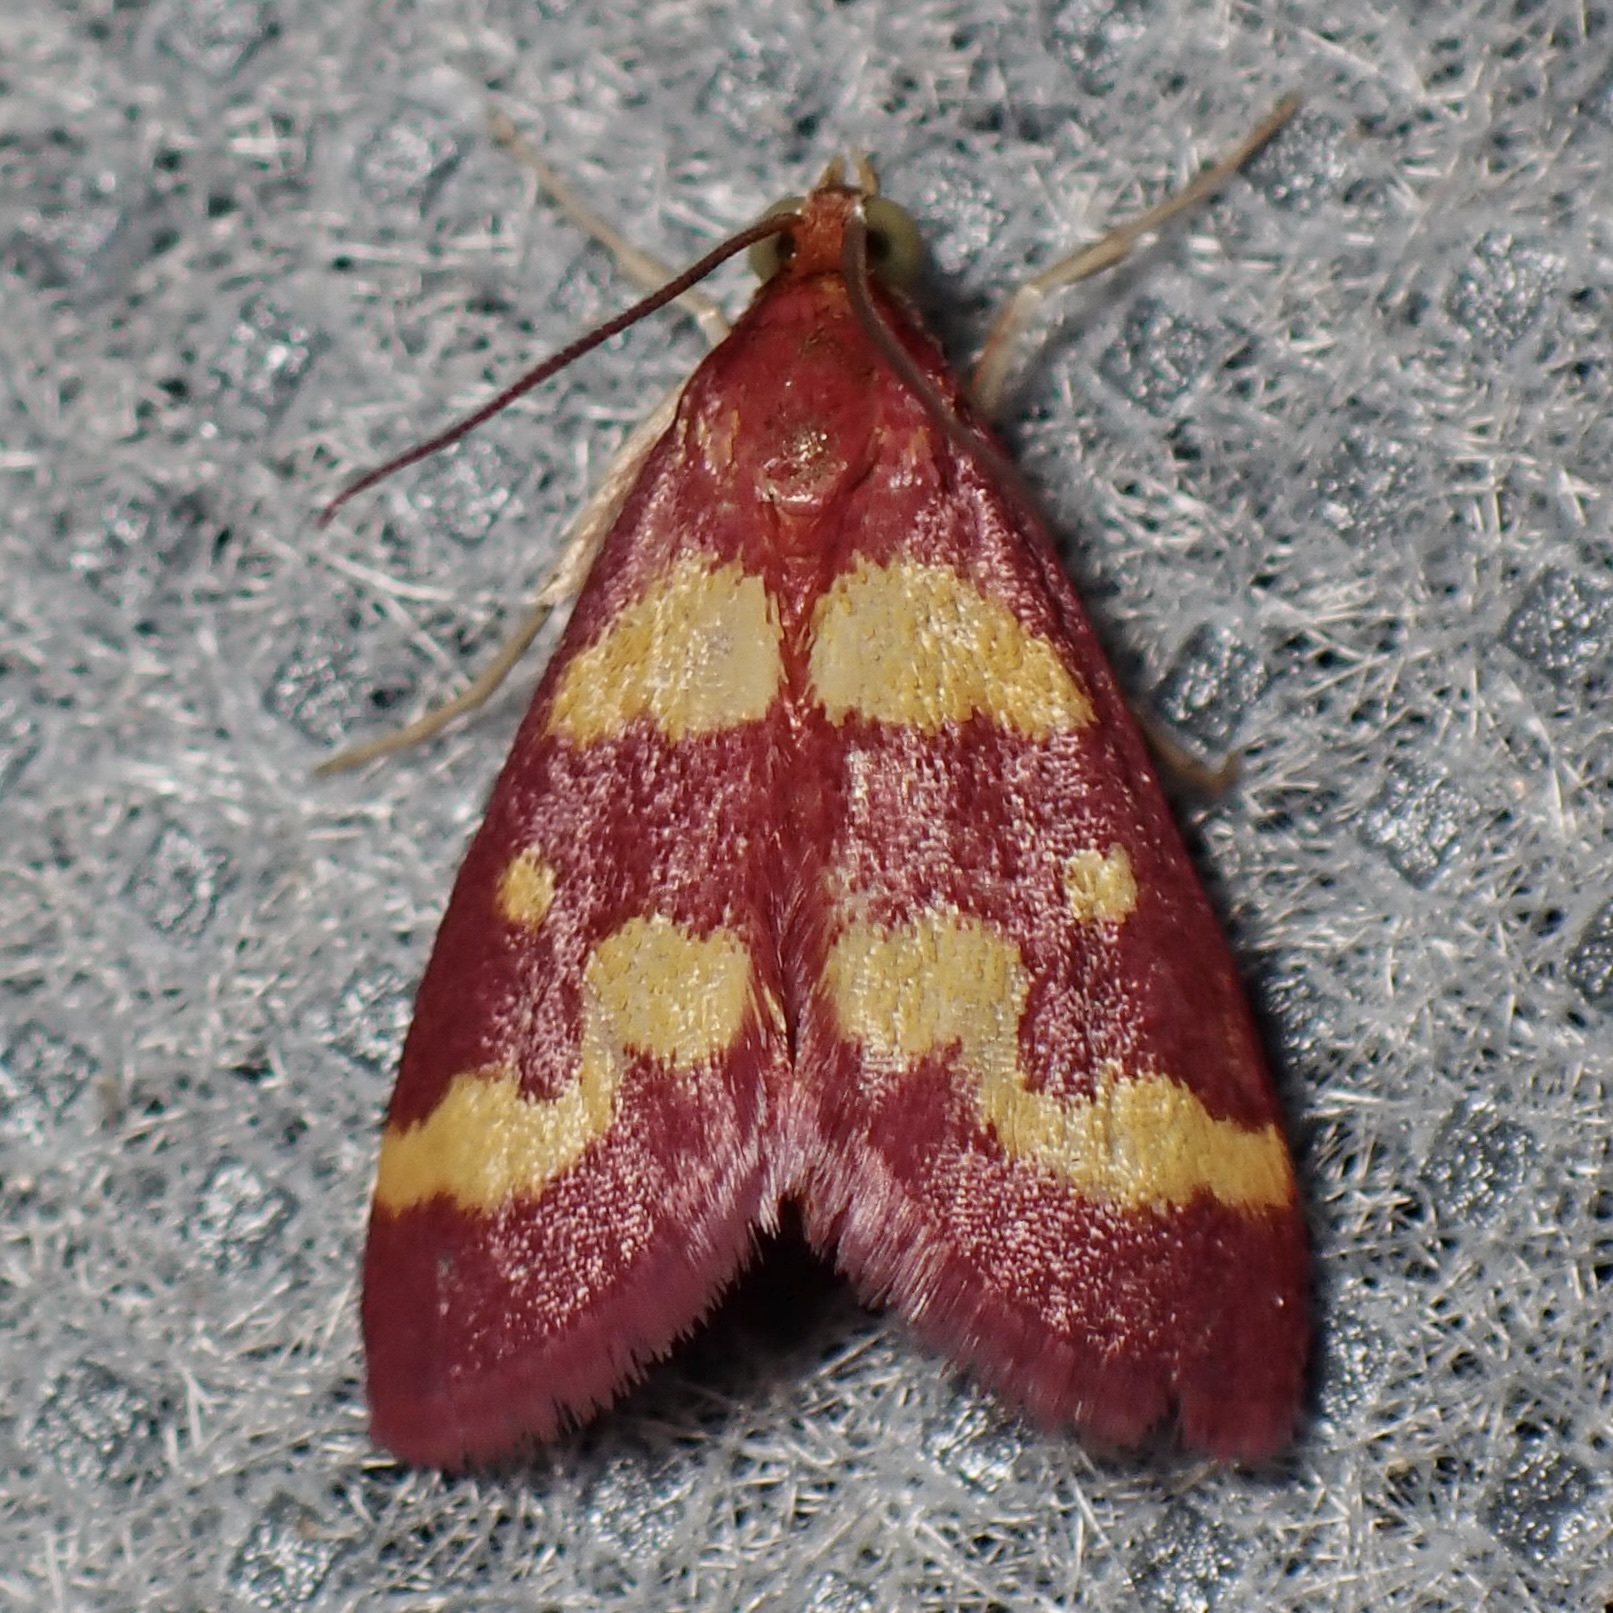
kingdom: Animalia
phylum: Arthropoda
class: Insecta
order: Lepidoptera
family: Crambidae
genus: Pyrausta
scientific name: Pyrausta tyralis
